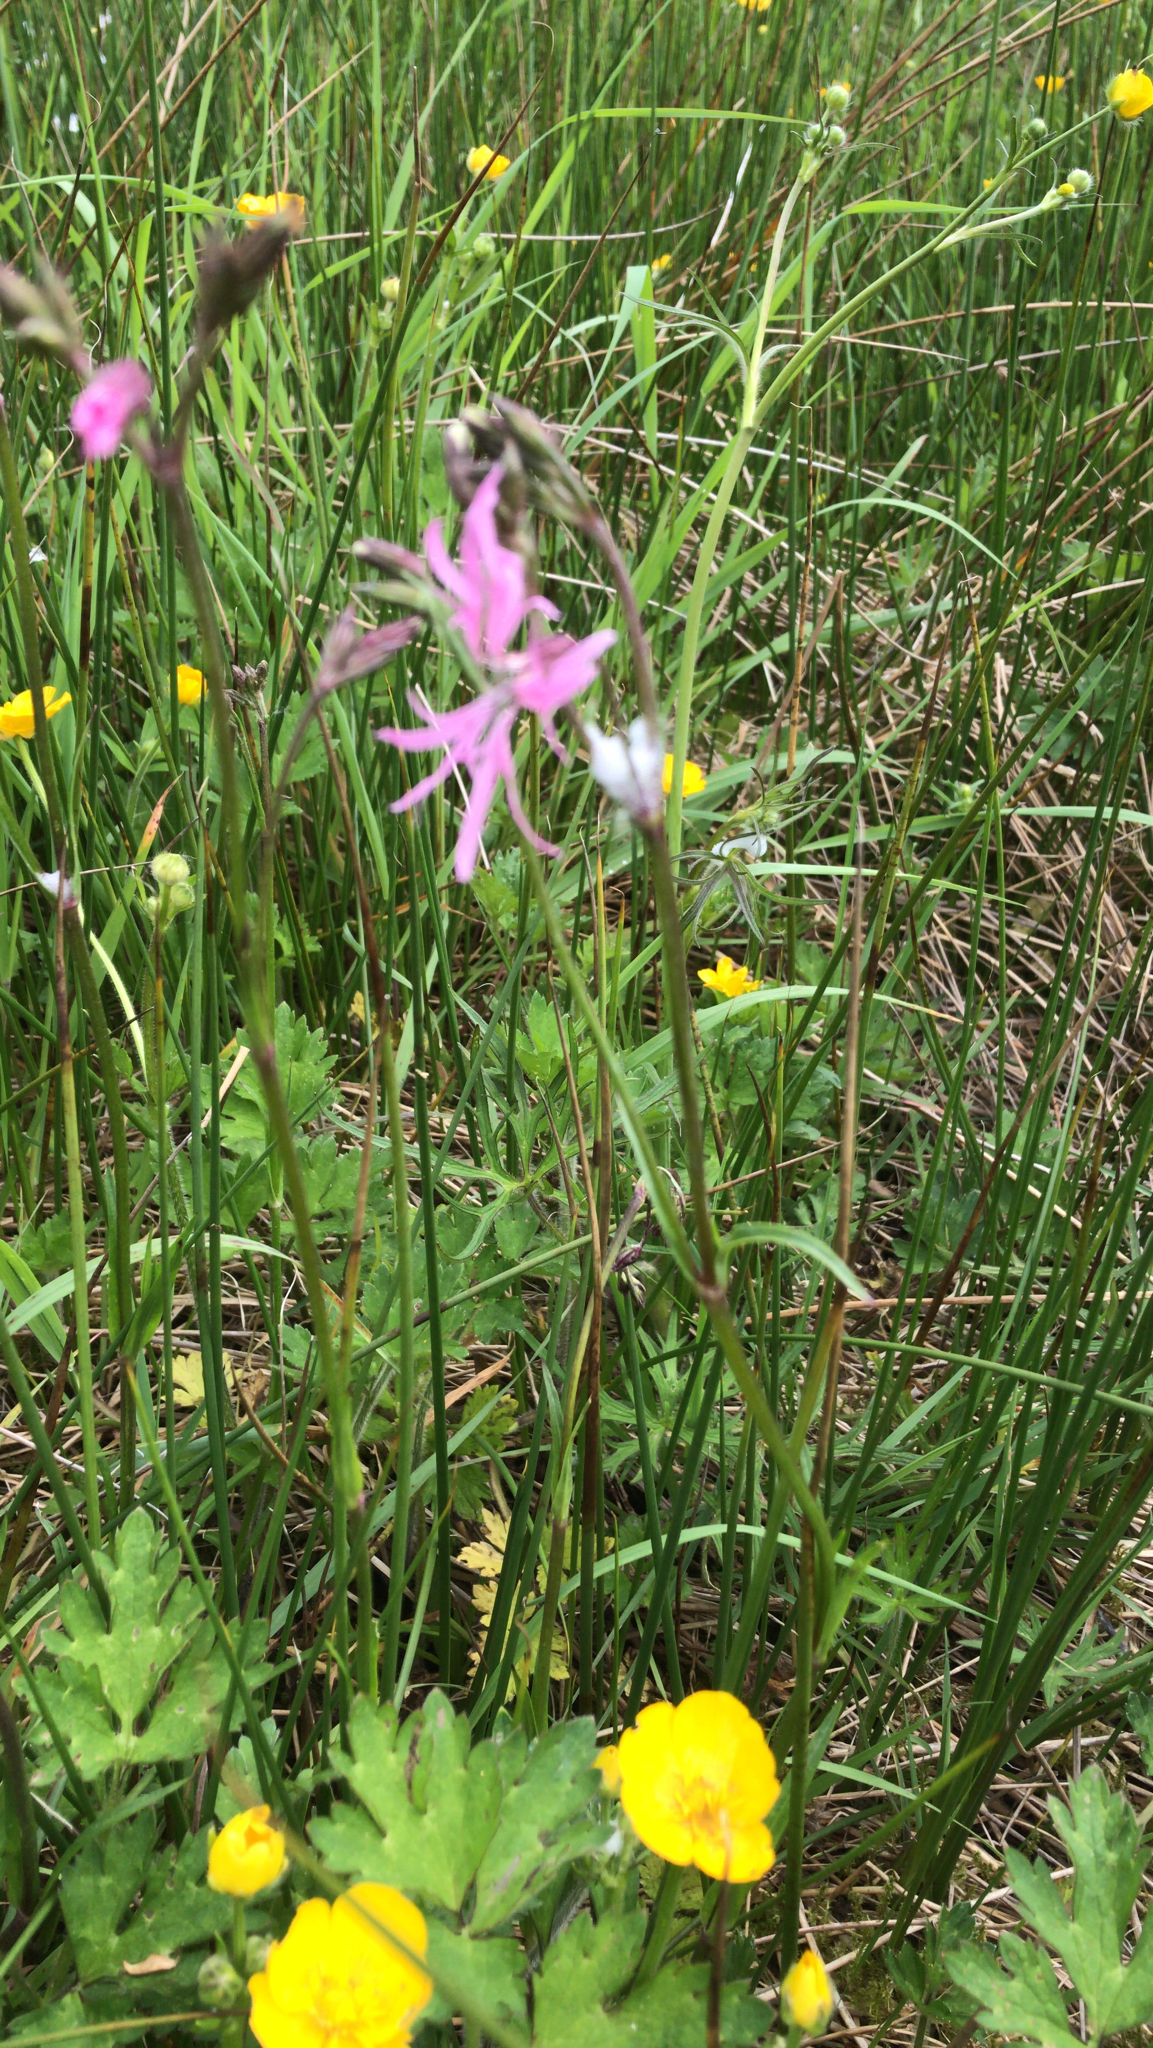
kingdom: Plantae
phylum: Tracheophyta
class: Magnoliopsida
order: Caryophyllales
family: Caryophyllaceae
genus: Silene
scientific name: Silene flos-cuculi
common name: Ragged-robin
